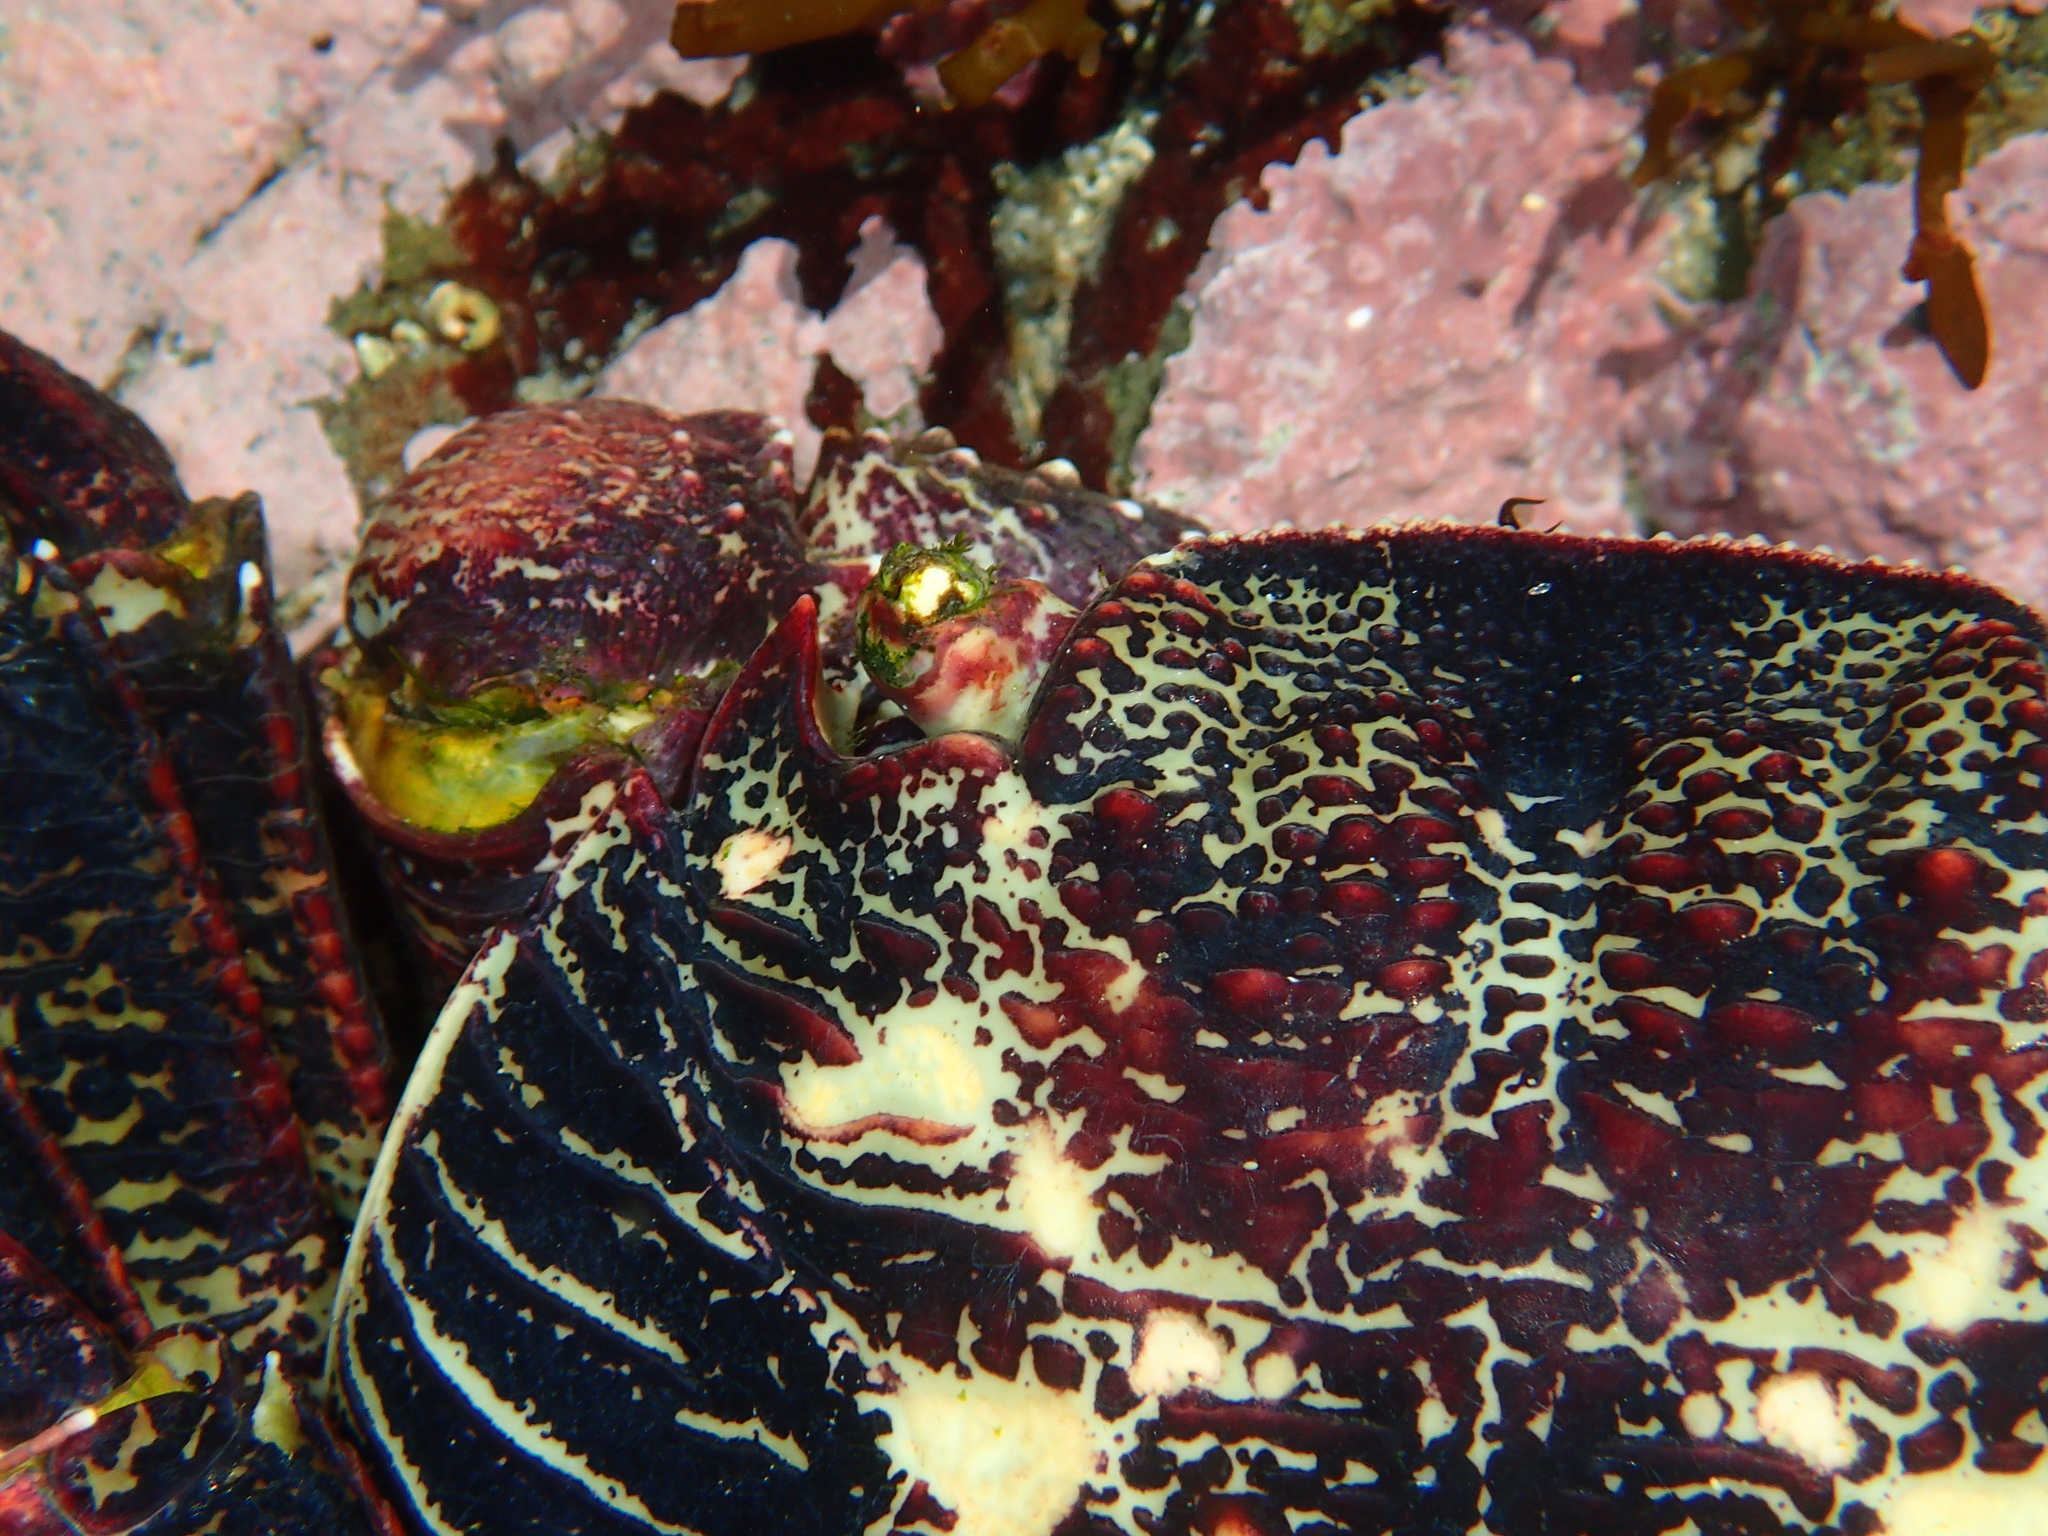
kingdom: Animalia
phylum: Arthropoda
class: Malacostraca
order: Decapoda
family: Grapsidae
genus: Leptograpsus
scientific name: Leptograpsus variegatus
